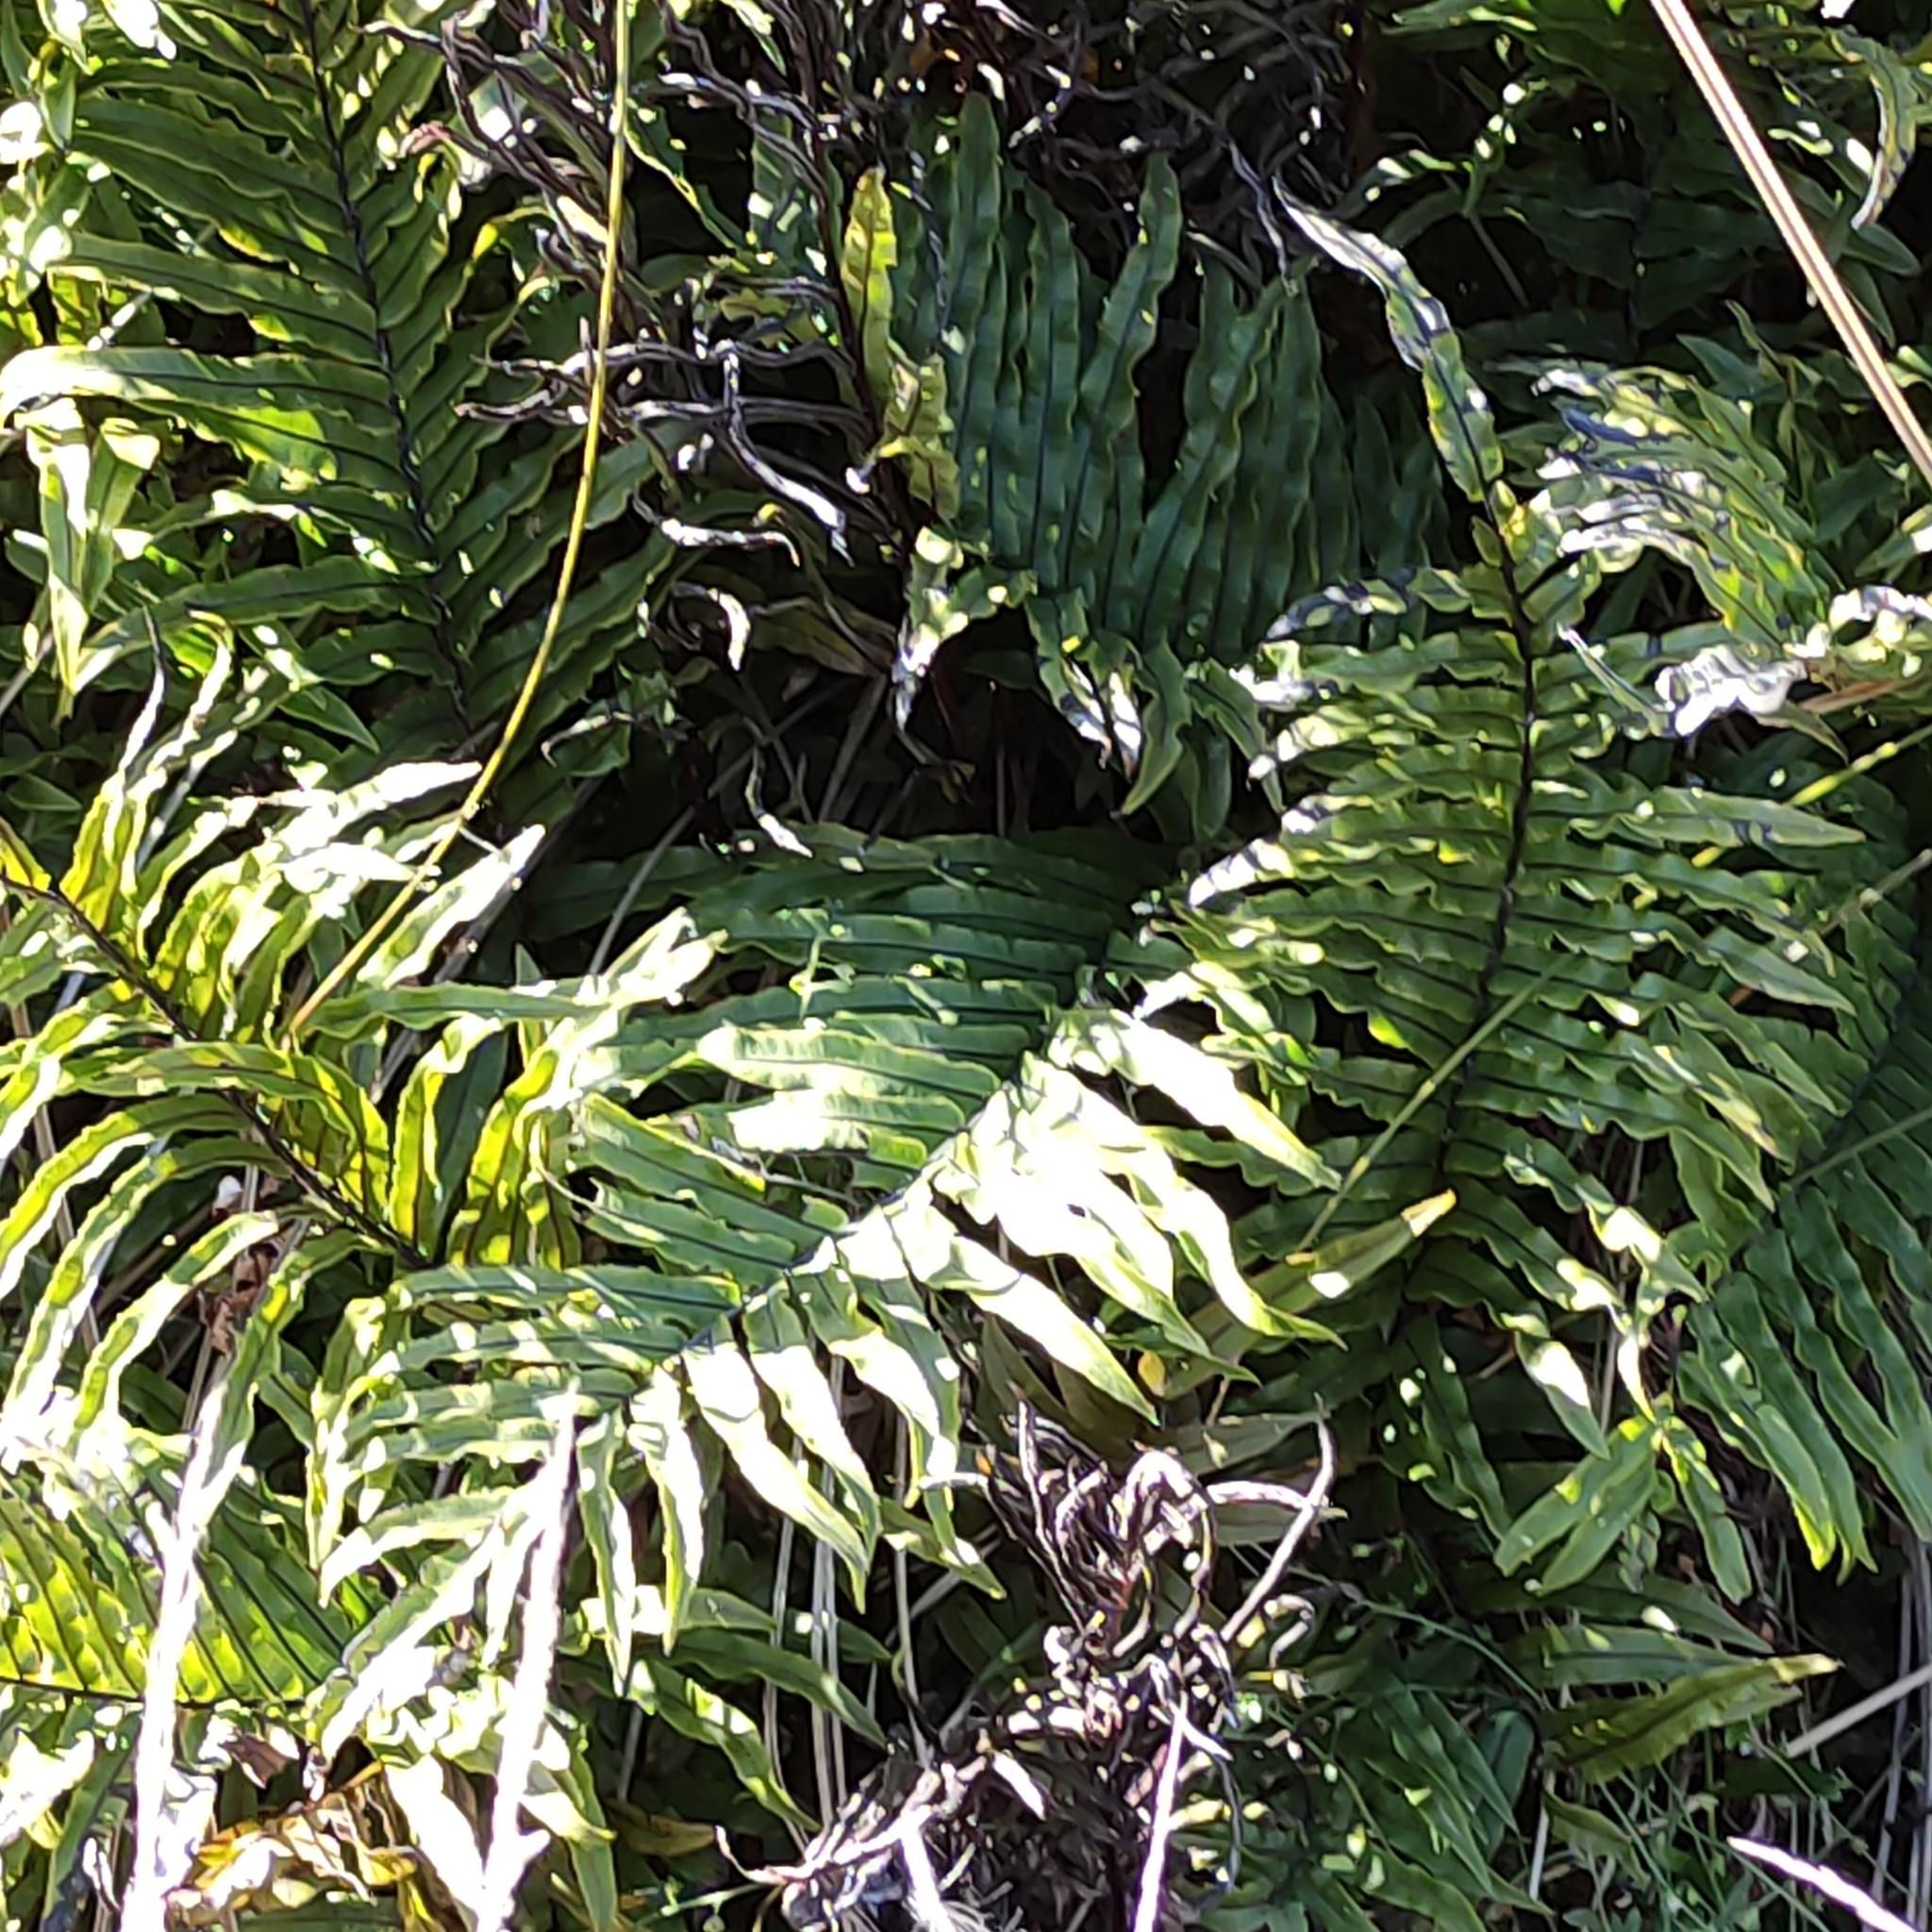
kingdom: Plantae
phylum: Tracheophyta
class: Polypodiopsida
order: Polypodiales
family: Blechnaceae
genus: Parablechnum
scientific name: Parablechnum minus
